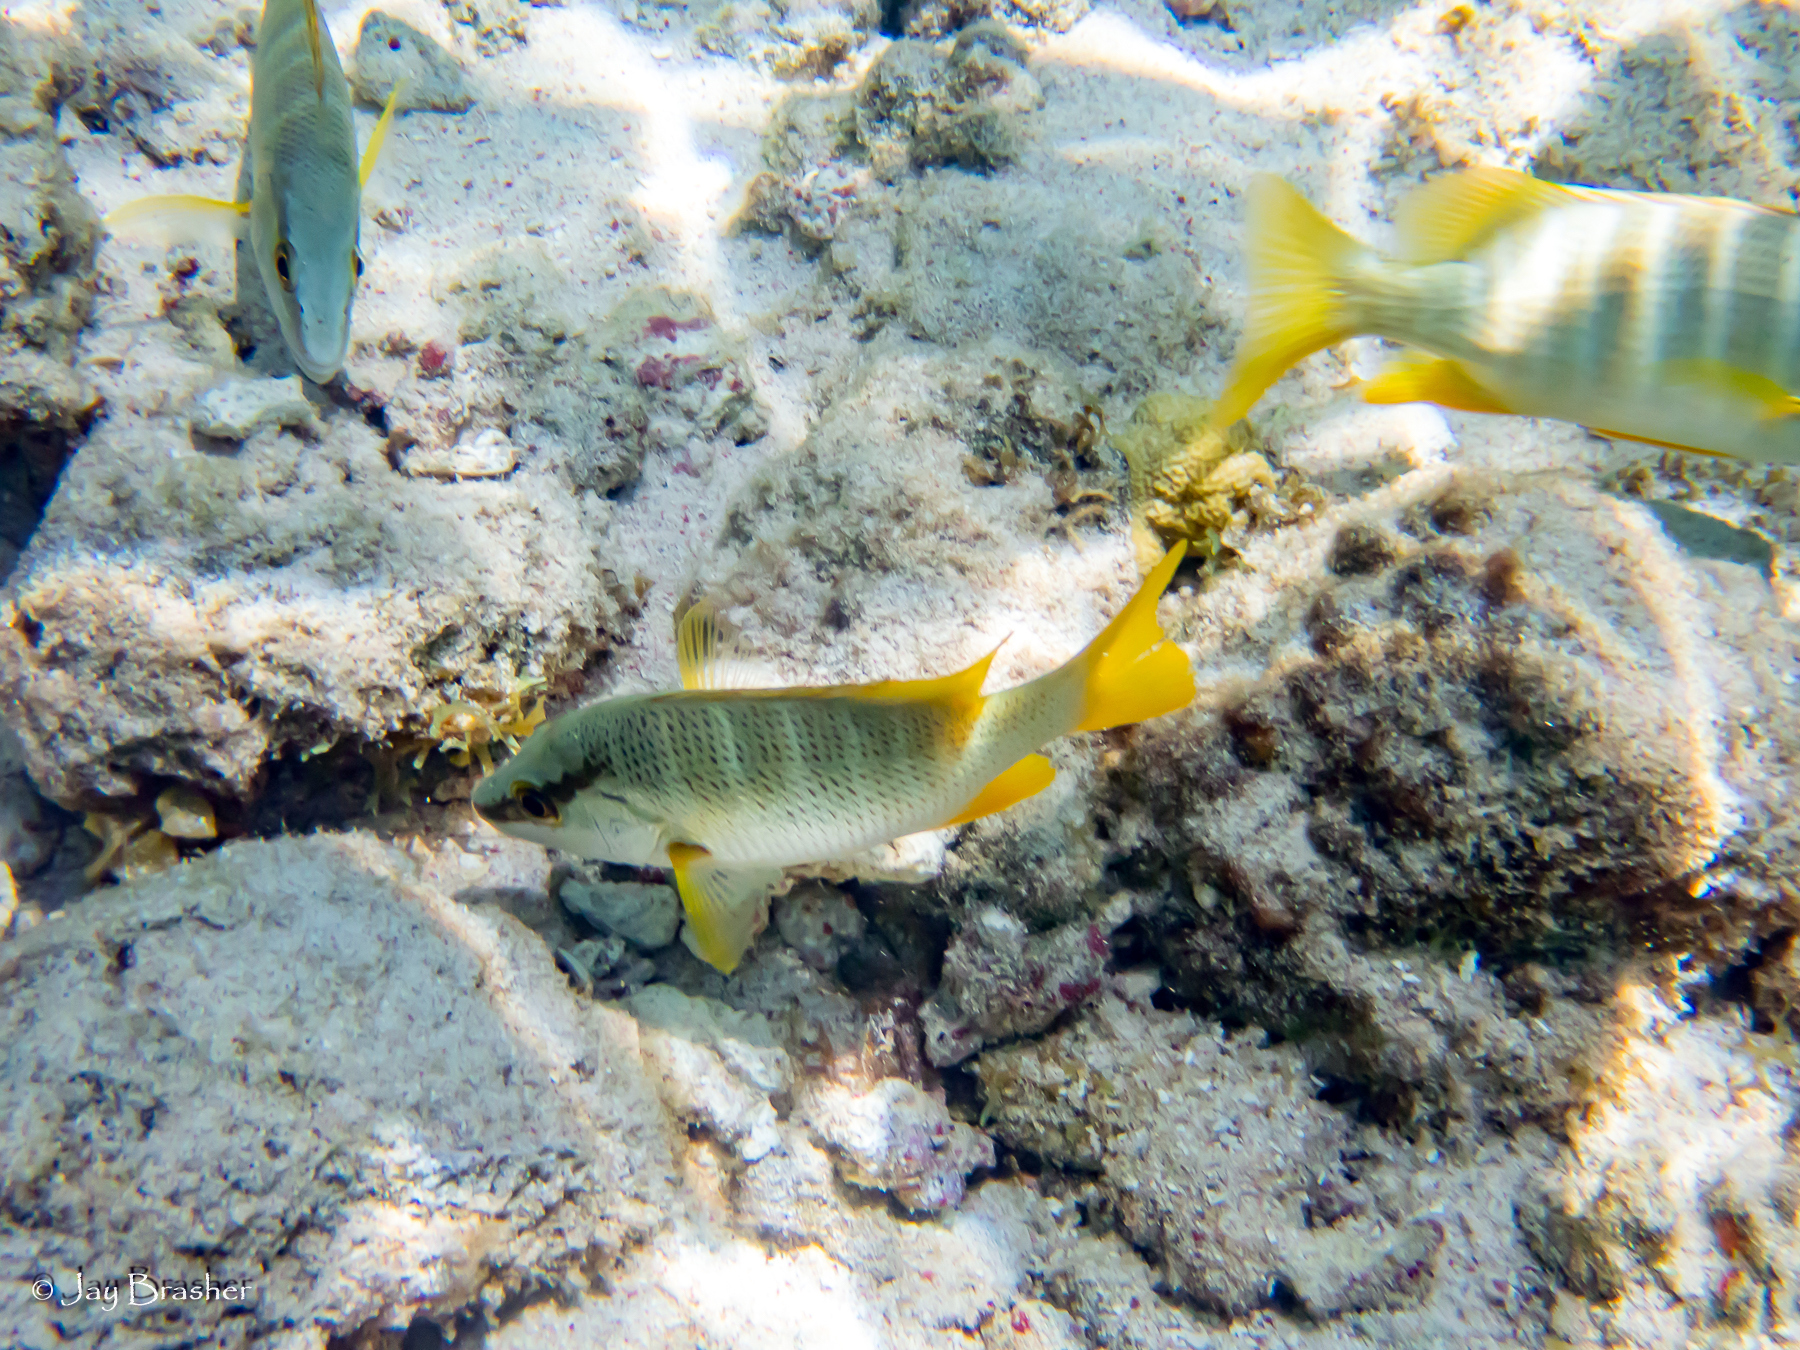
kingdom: Animalia
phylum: Chordata
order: Perciformes
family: Lutjanidae
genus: Lutjanus
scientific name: Lutjanus apodus
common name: Schoolmaster
